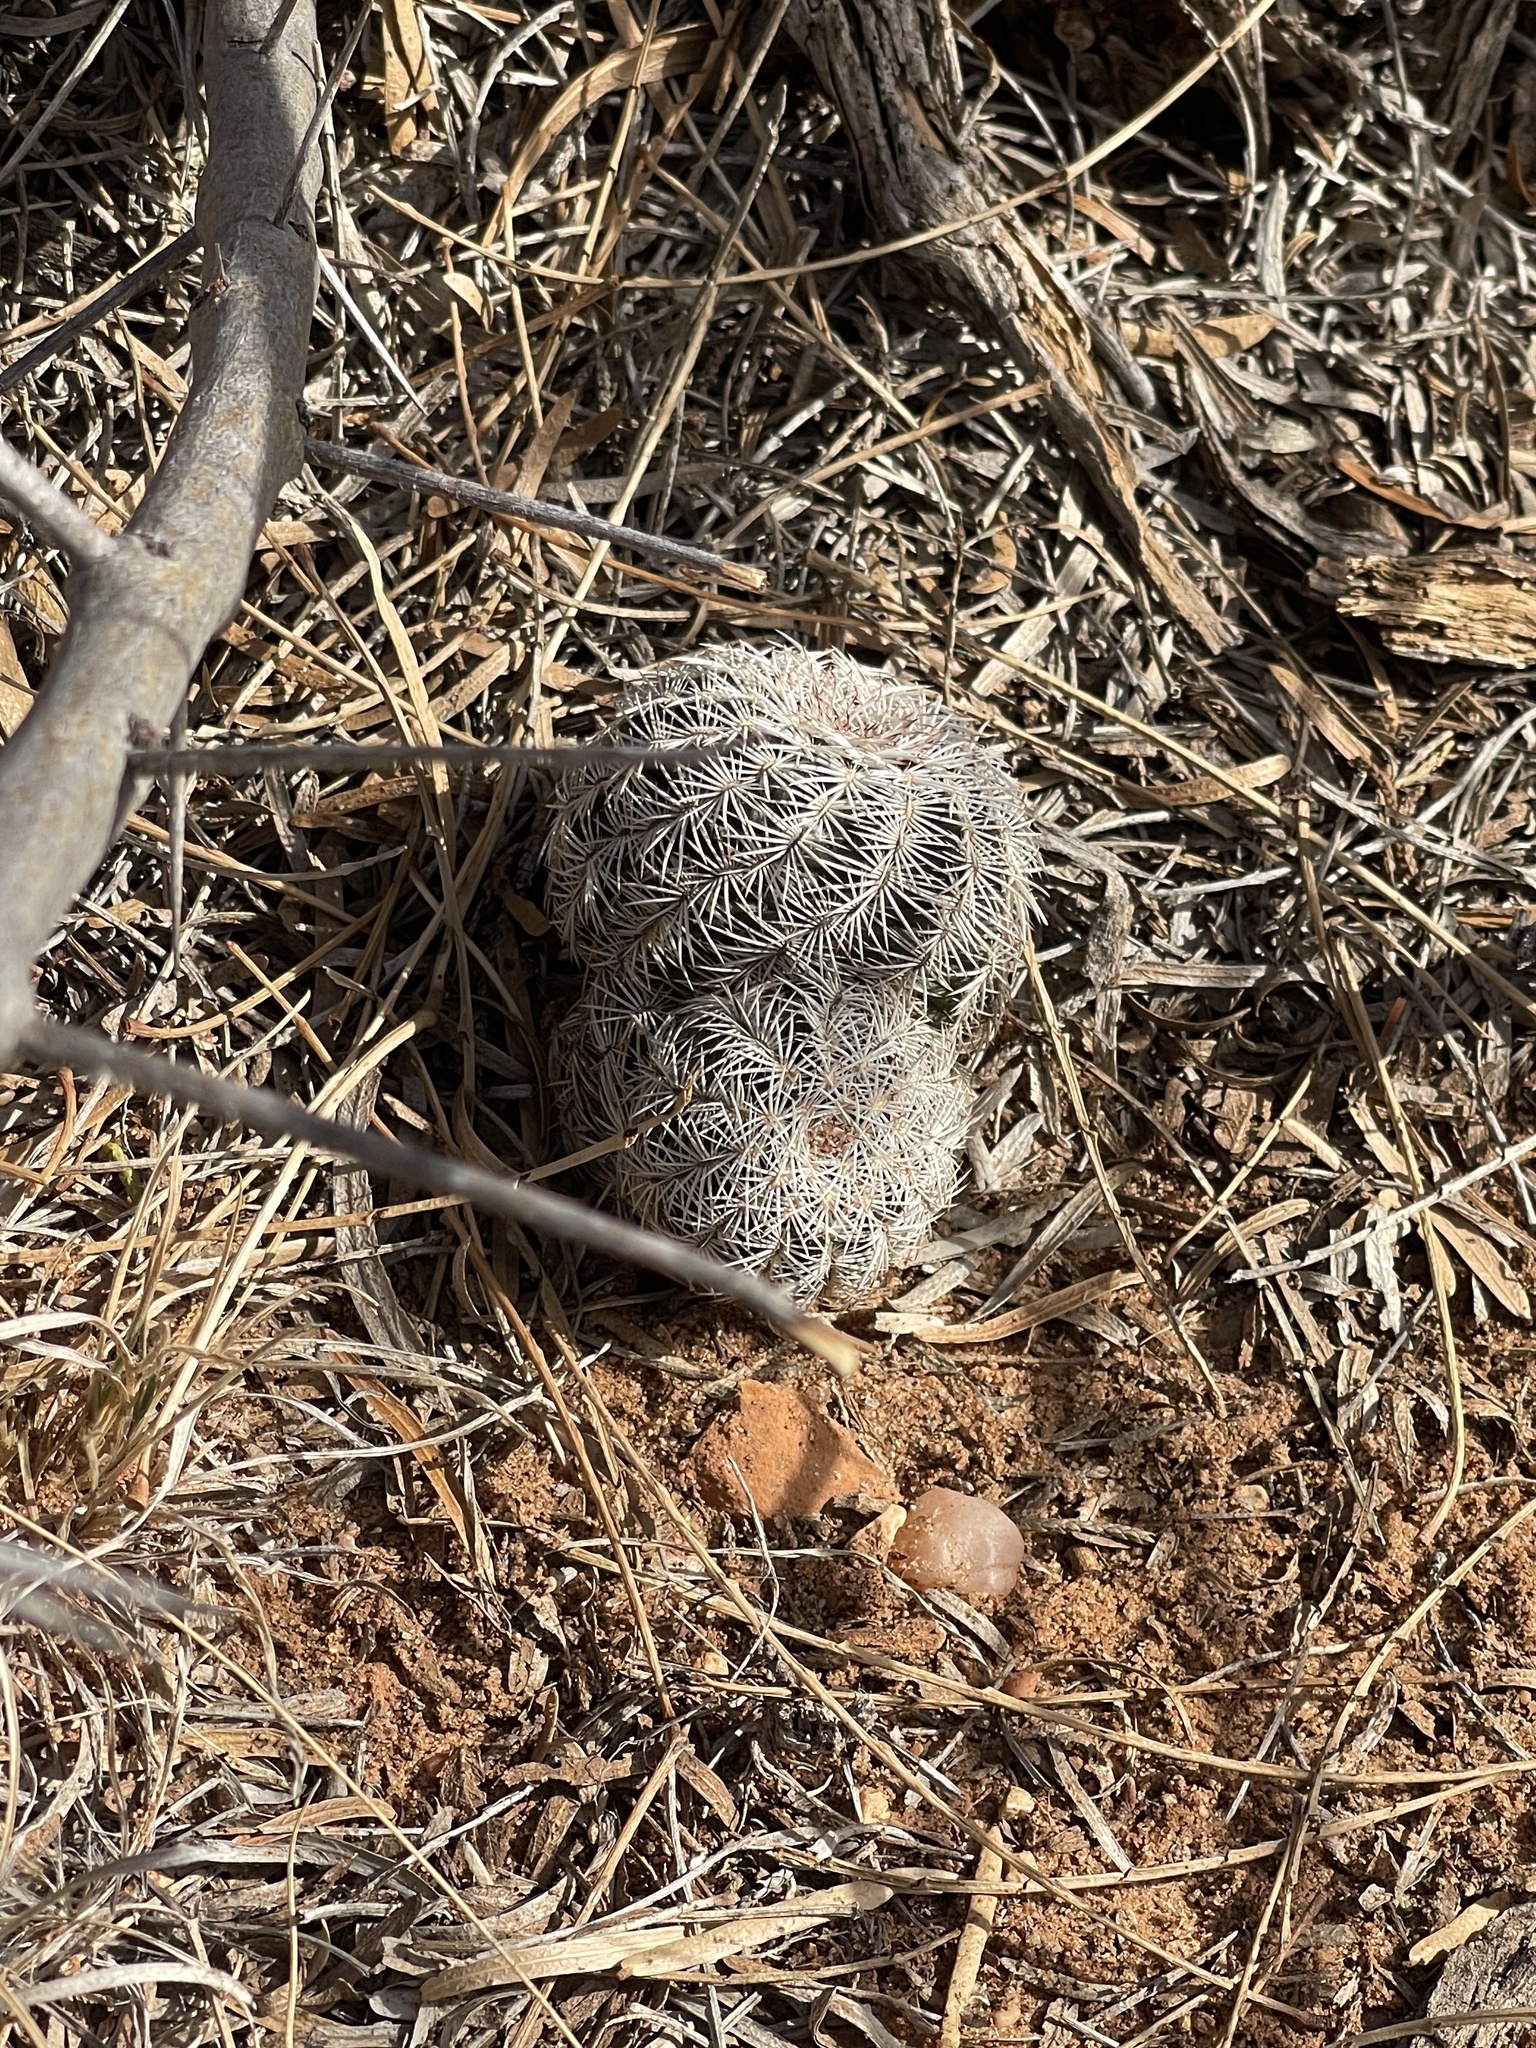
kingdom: Plantae
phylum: Tracheophyta
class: Magnoliopsida
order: Caryophyllales
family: Cactaceae
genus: Echinocereus
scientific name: Echinocereus reichenbachii
